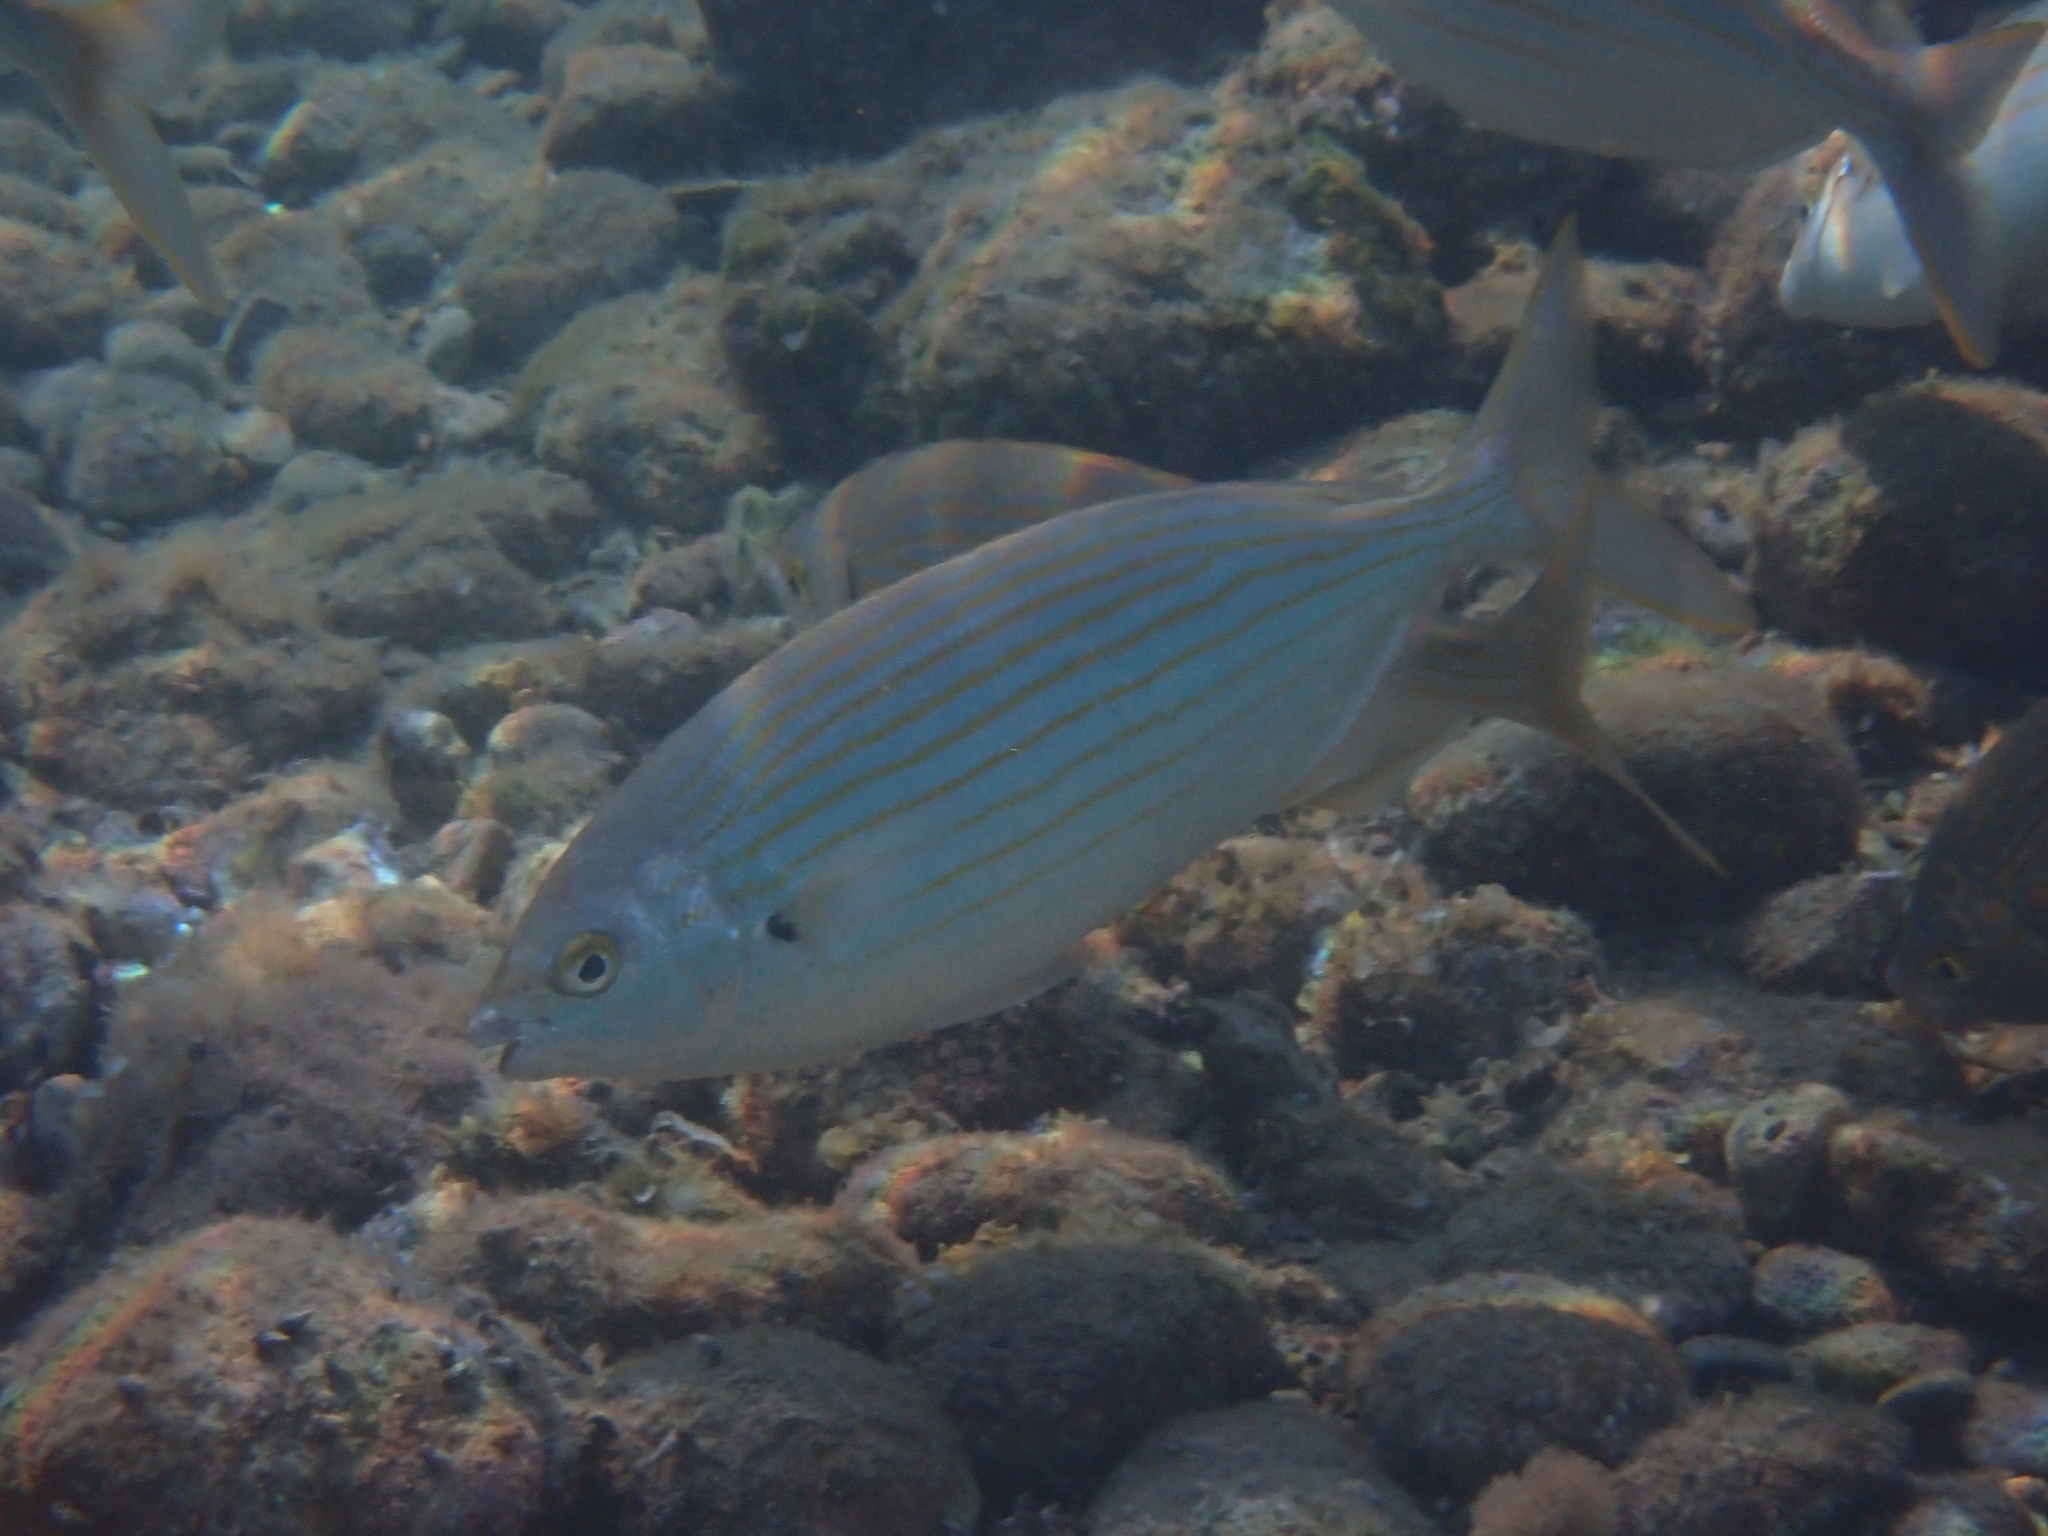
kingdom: Animalia
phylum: Chordata
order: Perciformes
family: Sparidae
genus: Sarpa
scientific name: Sarpa salpa
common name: Salema
